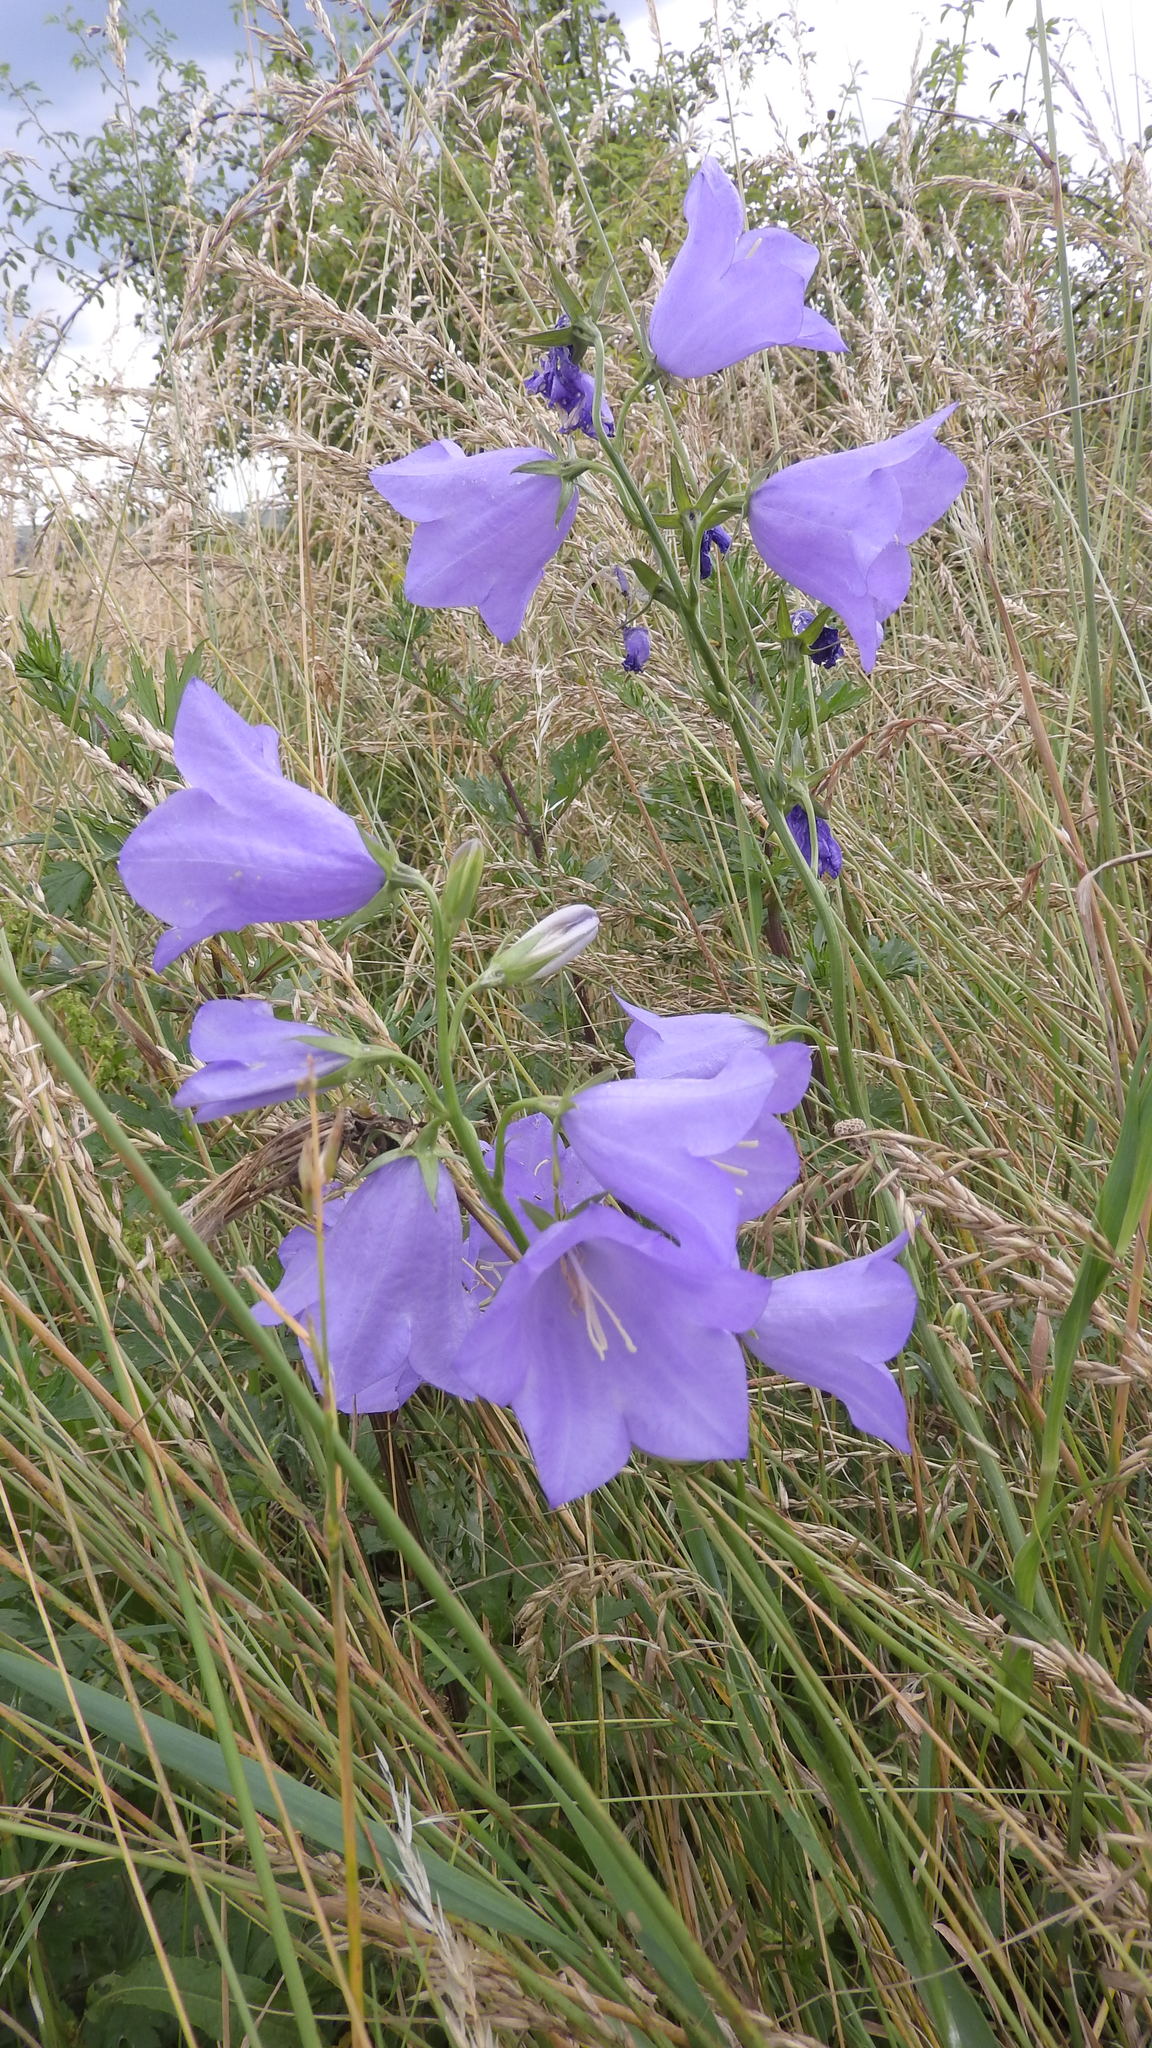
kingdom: Plantae
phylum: Tracheophyta
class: Magnoliopsida
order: Asterales
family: Campanulaceae
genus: Campanula
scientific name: Campanula persicifolia
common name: Peach-leaved bellflower
